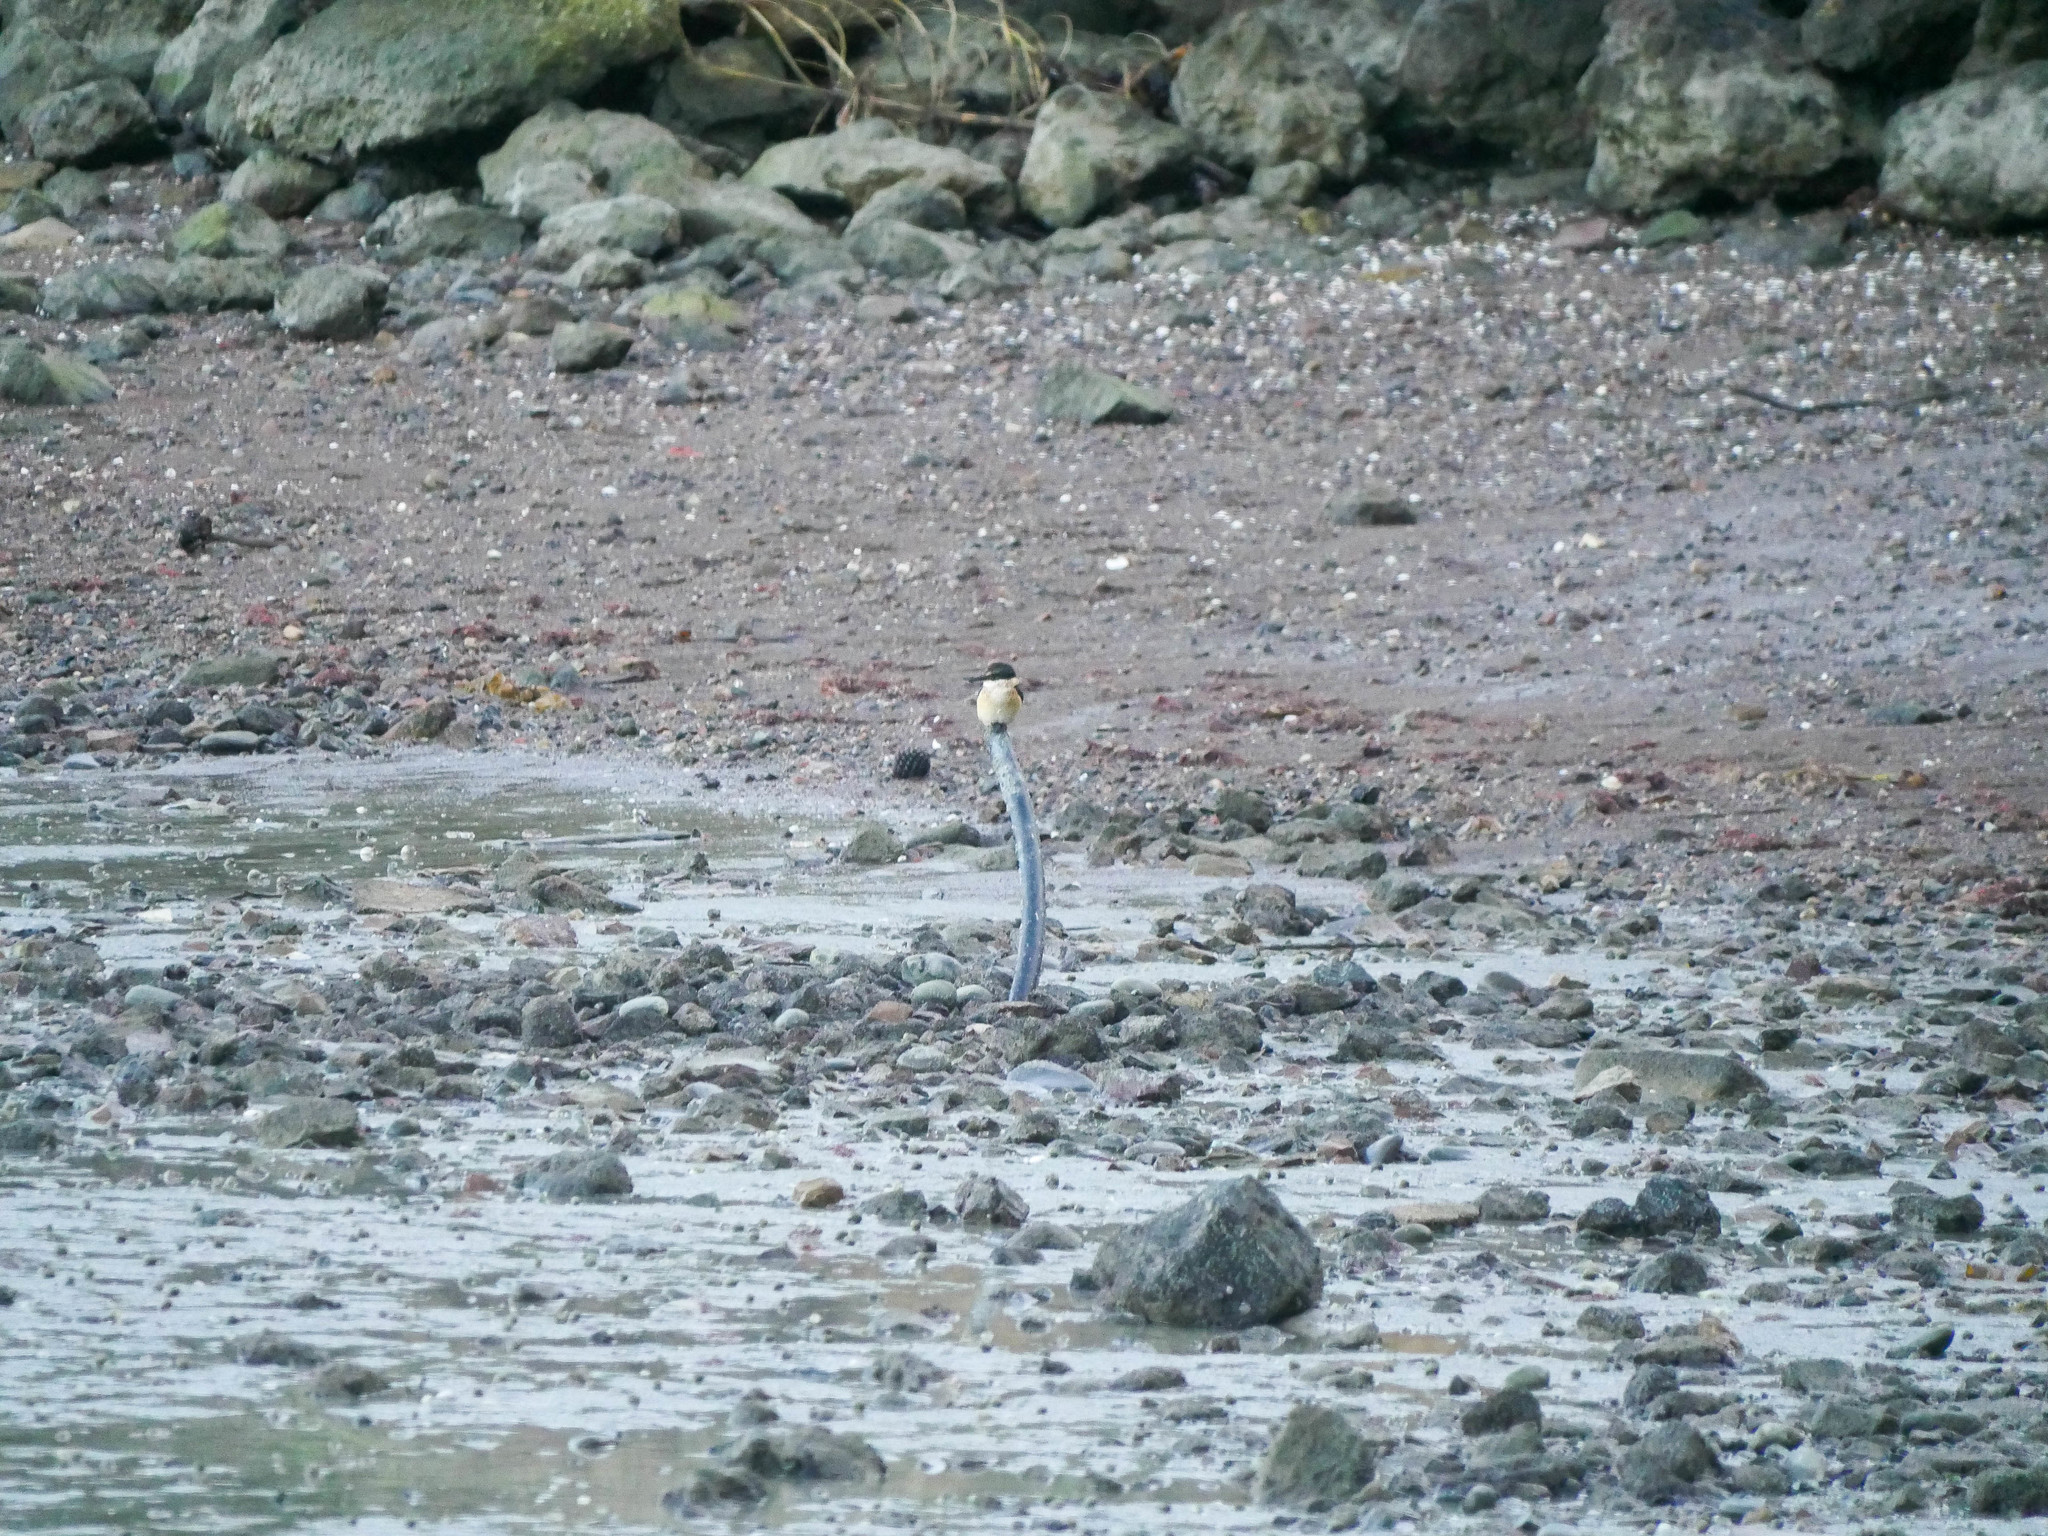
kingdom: Animalia
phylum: Chordata
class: Aves
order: Coraciiformes
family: Alcedinidae
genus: Todiramphus
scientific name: Todiramphus sanctus
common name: Sacred kingfisher
